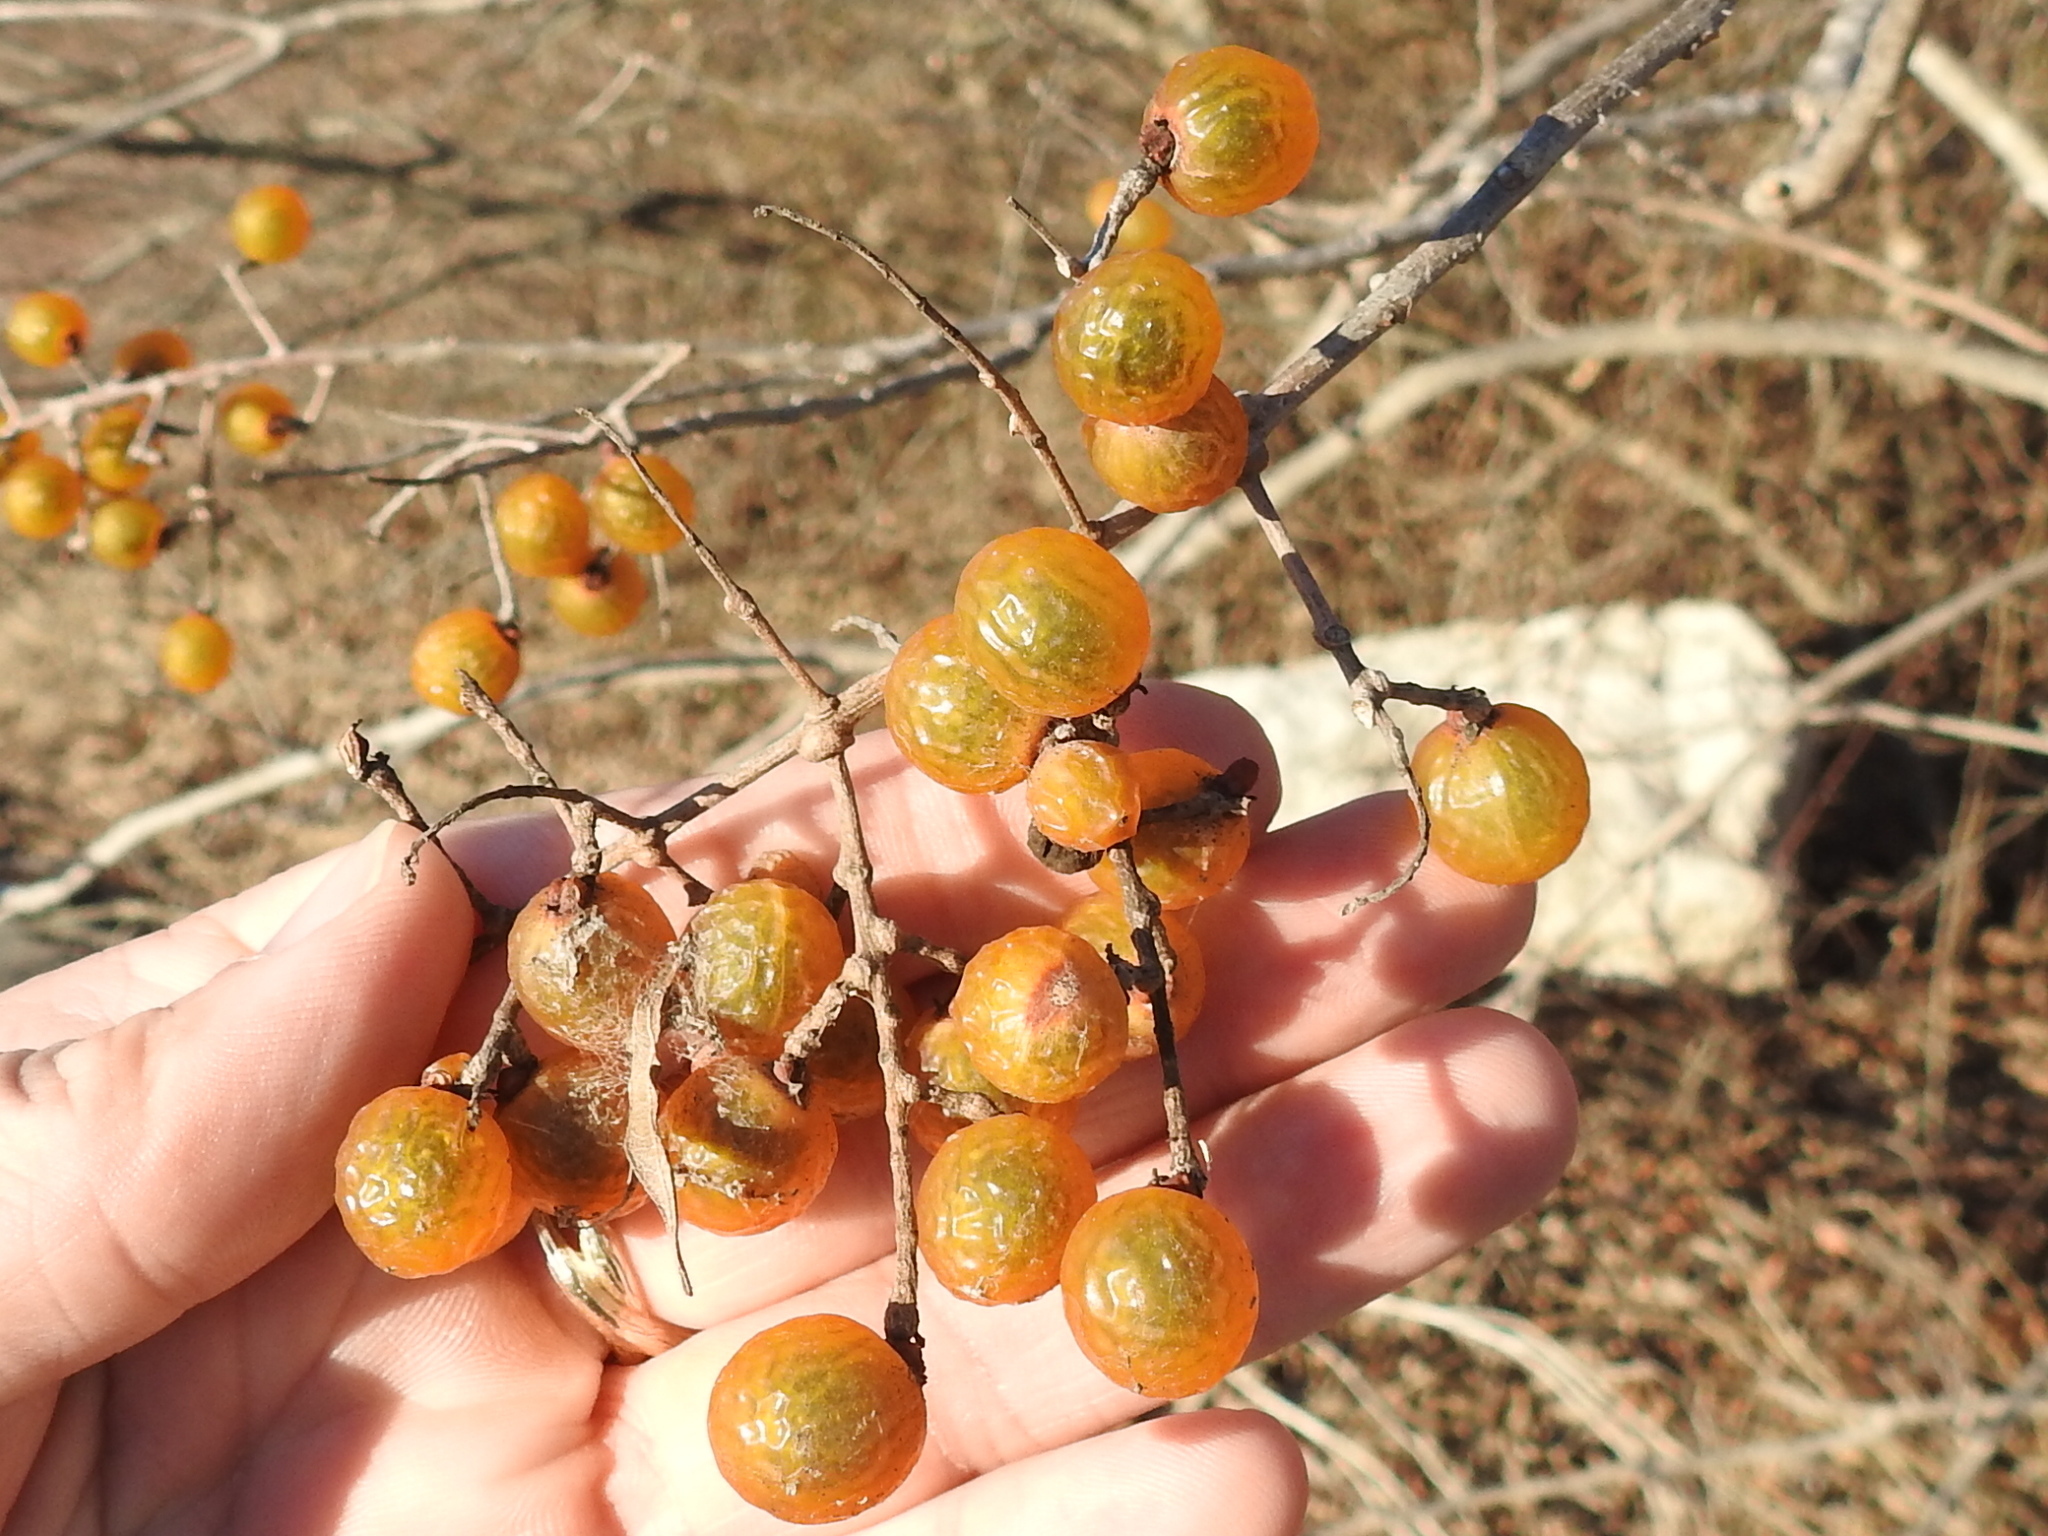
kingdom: Plantae
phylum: Tracheophyta
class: Magnoliopsida
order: Sapindales
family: Sapindaceae
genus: Sapindus
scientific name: Sapindus drummondii
